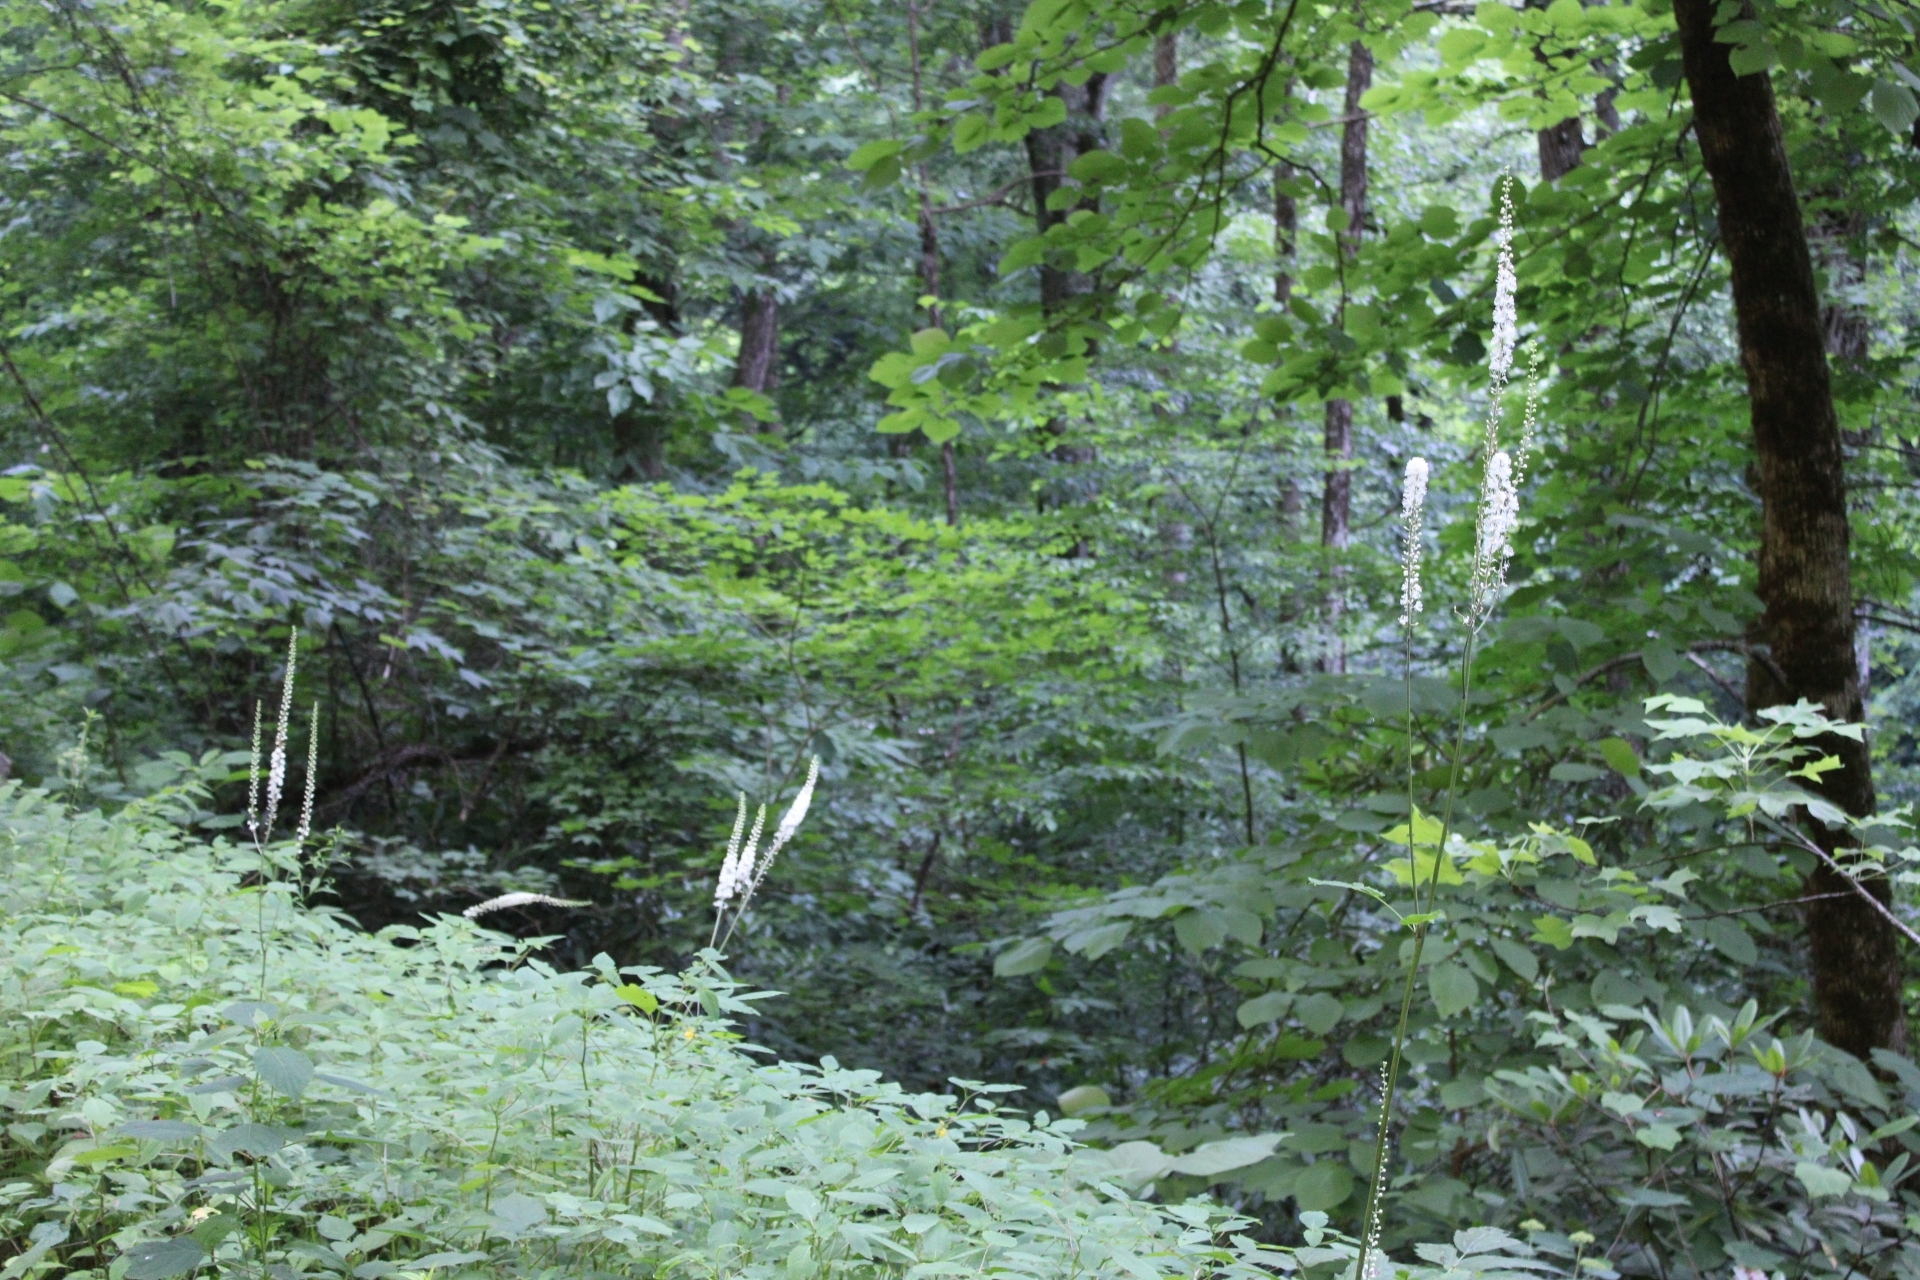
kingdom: Plantae
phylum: Tracheophyta
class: Magnoliopsida
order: Ranunculales
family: Ranunculaceae
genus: Actaea
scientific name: Actaea racemosa
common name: Black cohosh
